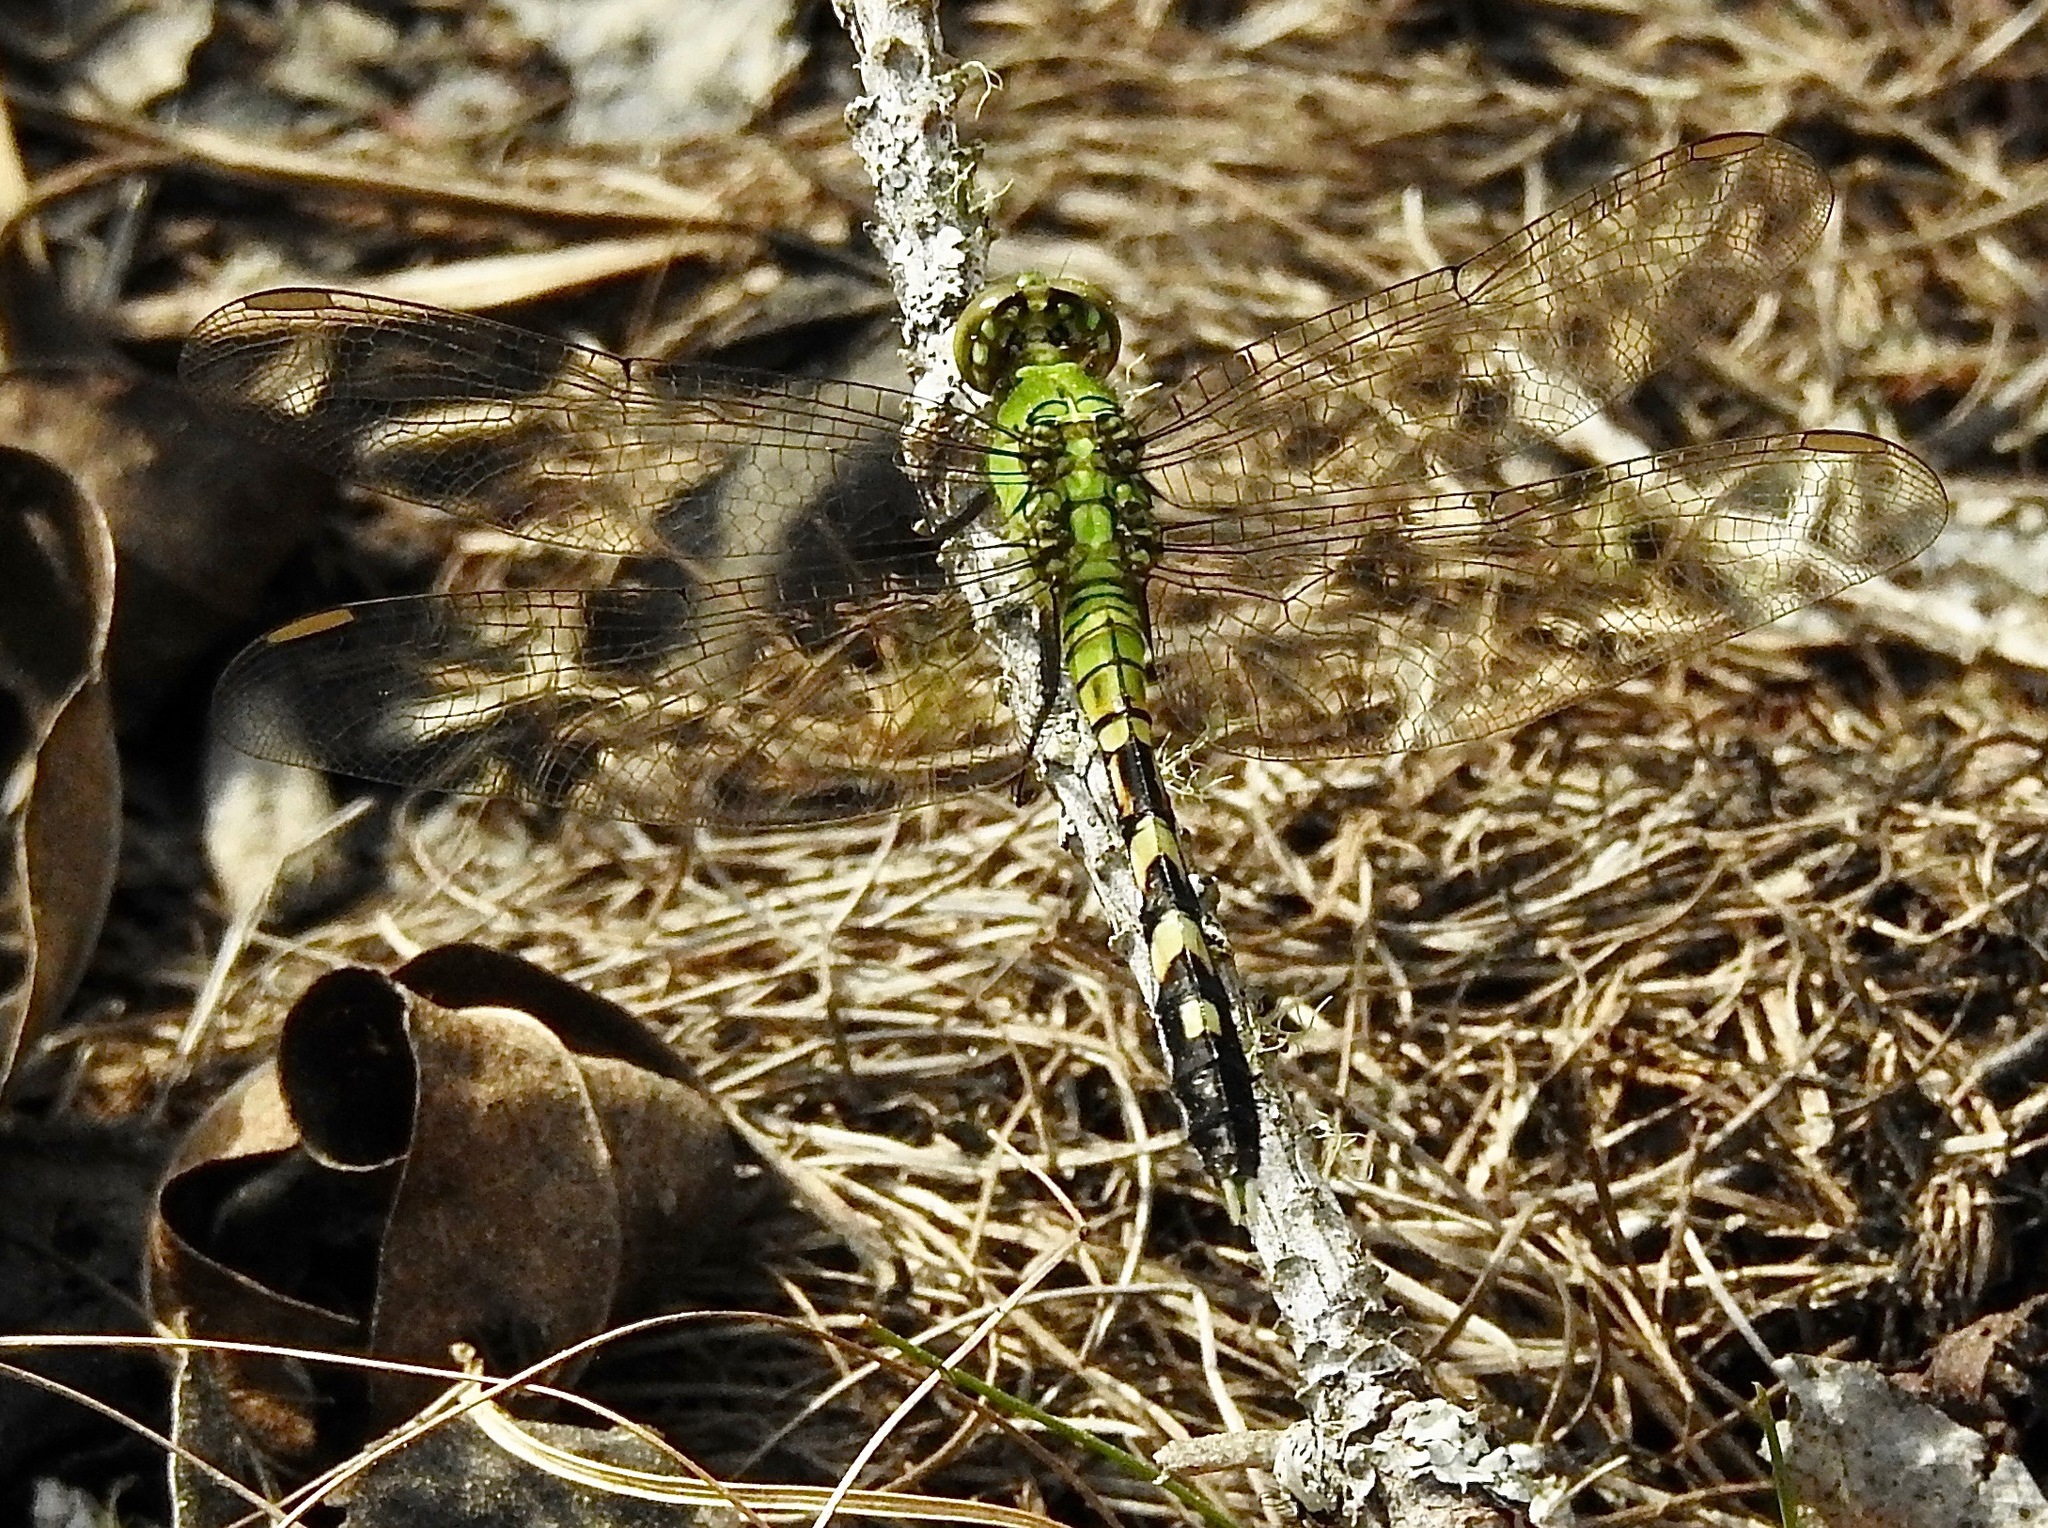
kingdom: Animalia
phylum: Arthropoda
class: Insecta
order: Odonata
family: Libellulidae
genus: Erythemis
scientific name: Erythemis simplicicollis
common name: Eastern pondhawk
